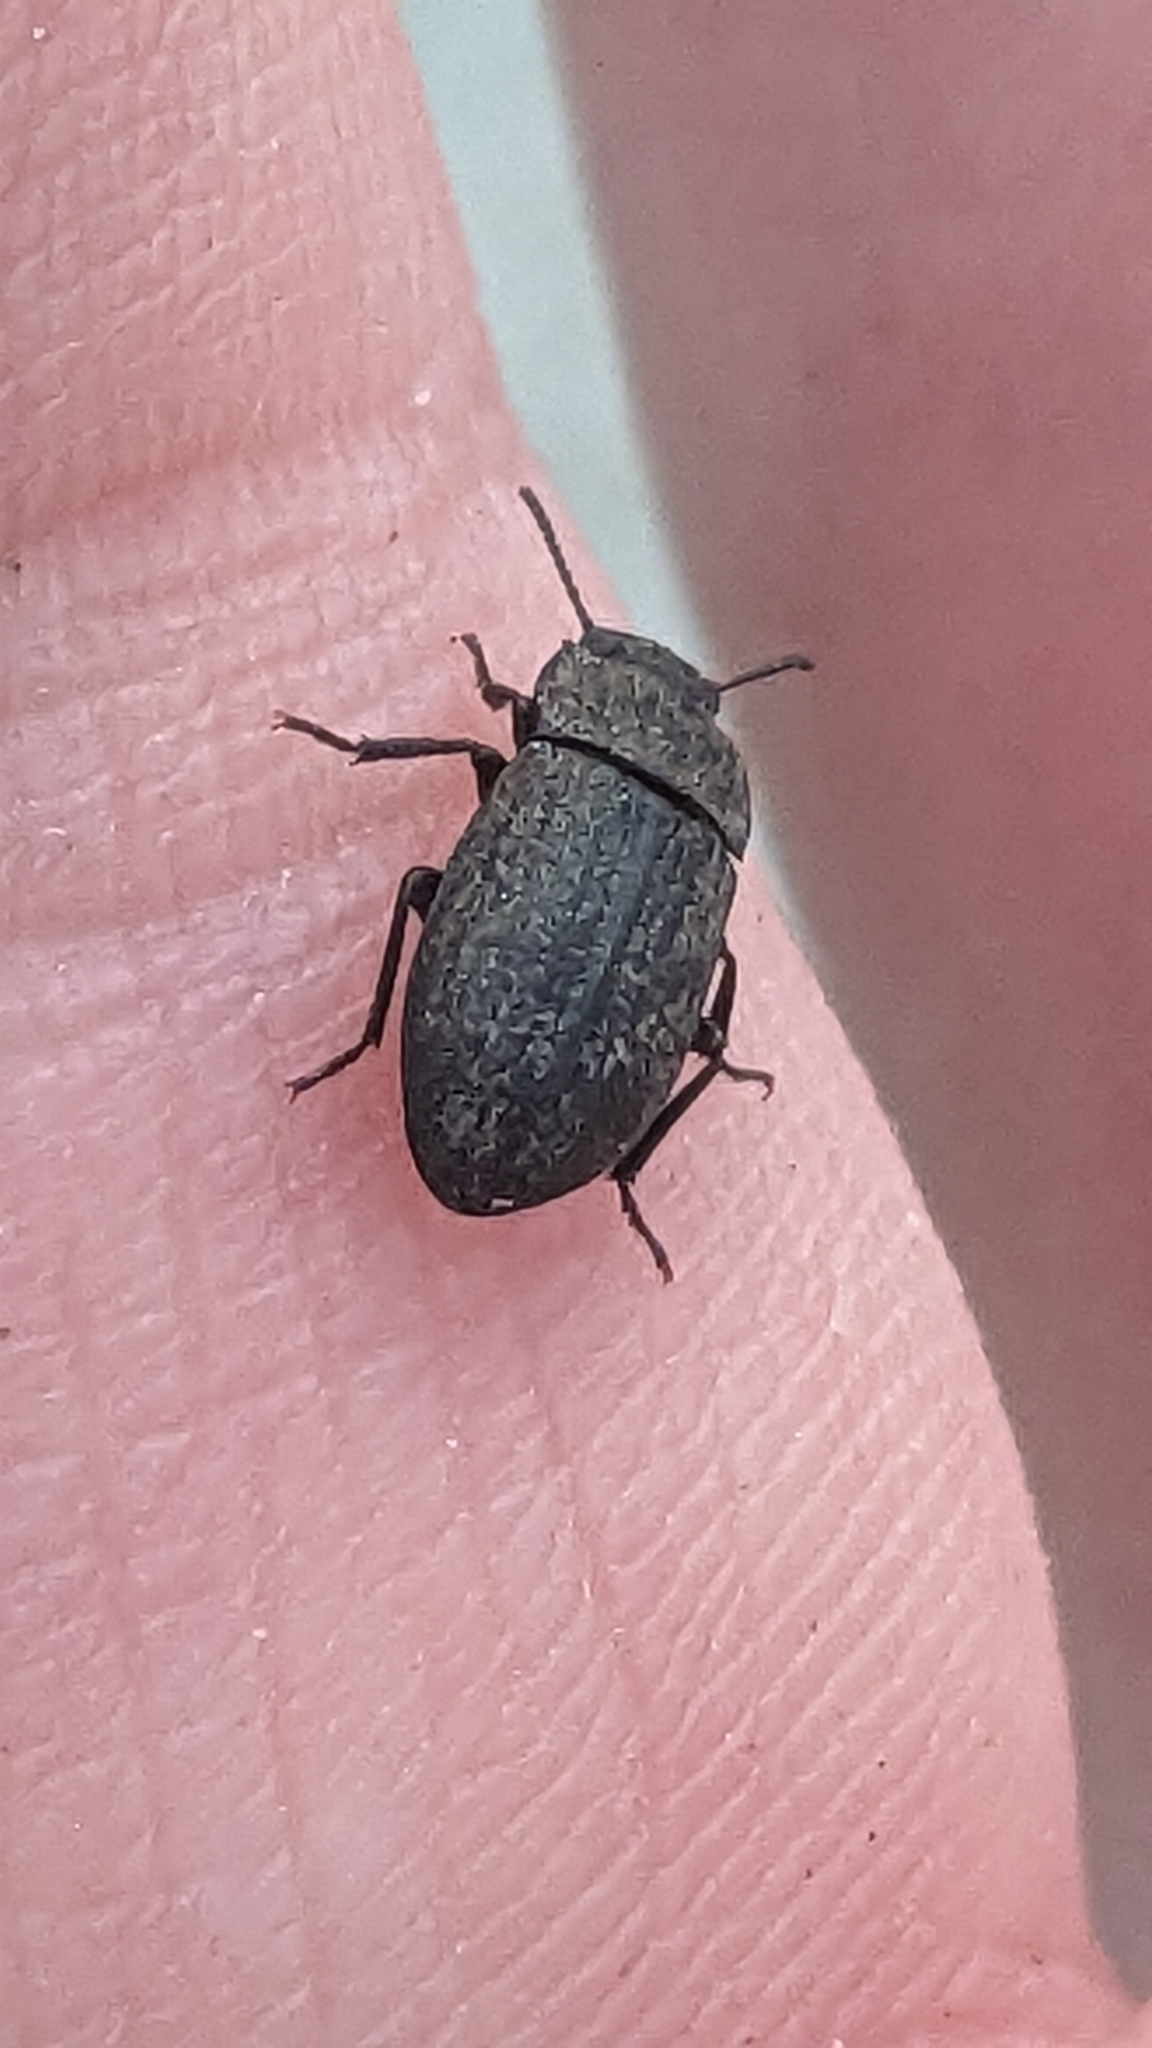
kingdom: Animalia
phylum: Arthropoda
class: Insecta
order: Coleoptera
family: Tenebrionidae
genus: Opatrum
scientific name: Opatrum sabulosum
